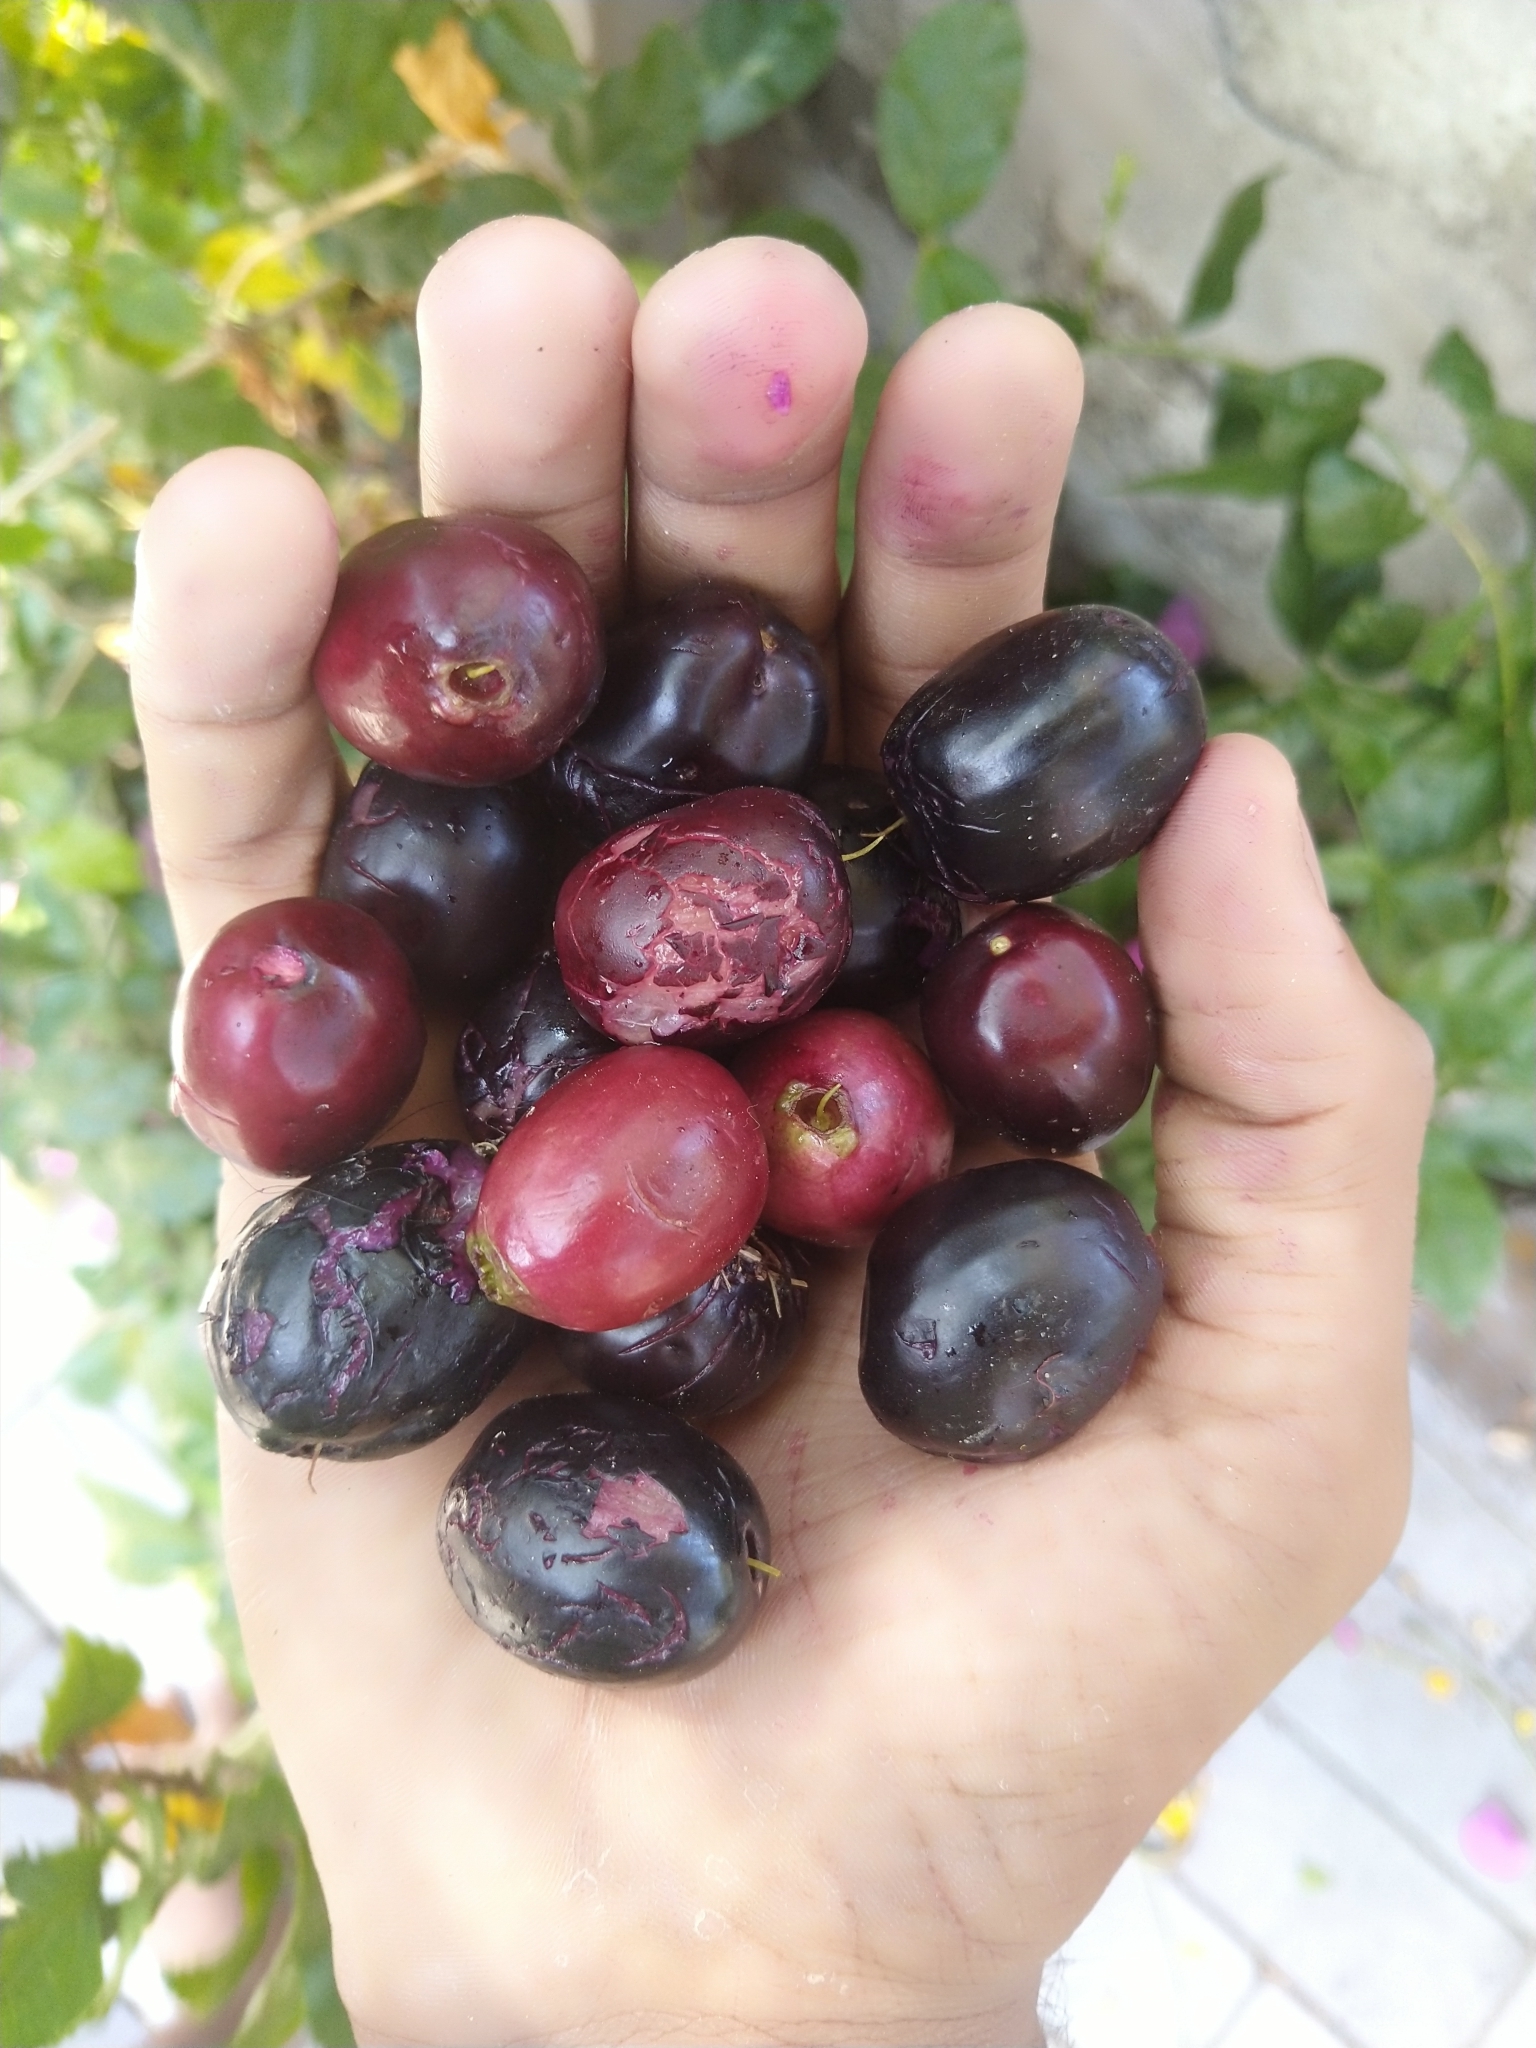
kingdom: Plantae
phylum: Tracheophyta
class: Magnoliopsida
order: Myrtales
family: Myrtaceae
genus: Syzygium
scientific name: Syzygium cumini
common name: Java plum
